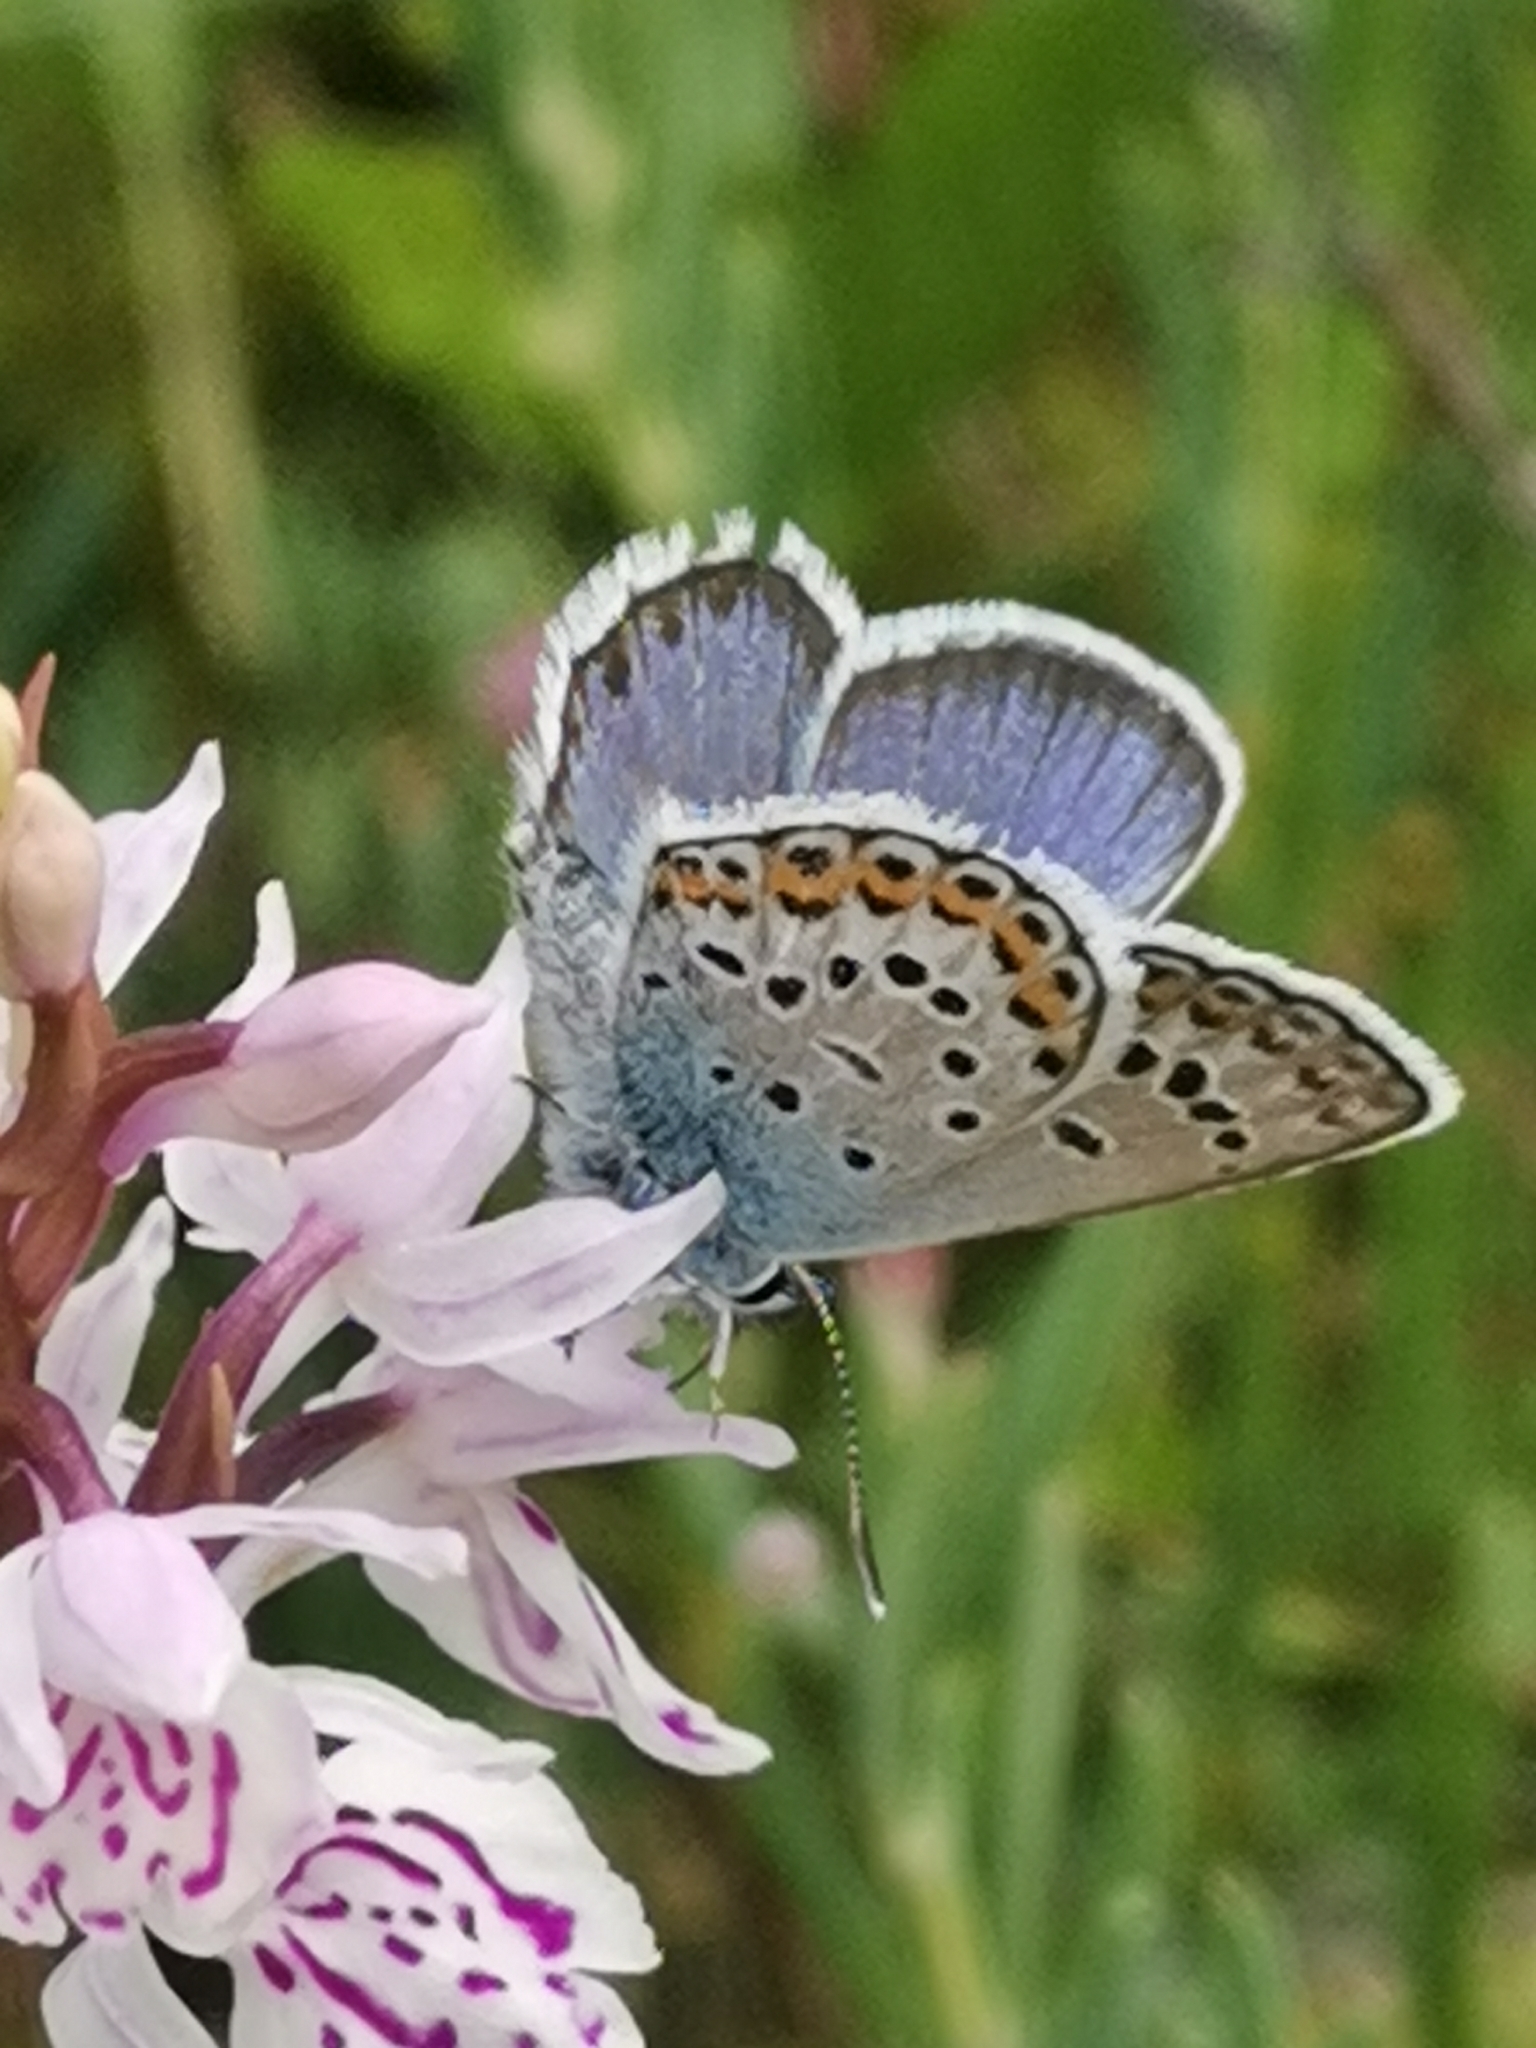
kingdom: Animalia
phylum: Arthropoda
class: Insecta
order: Lepidoptera
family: Lycaenidae
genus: Plebejus
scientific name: Plebejus argus
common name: Silver-studded blue
